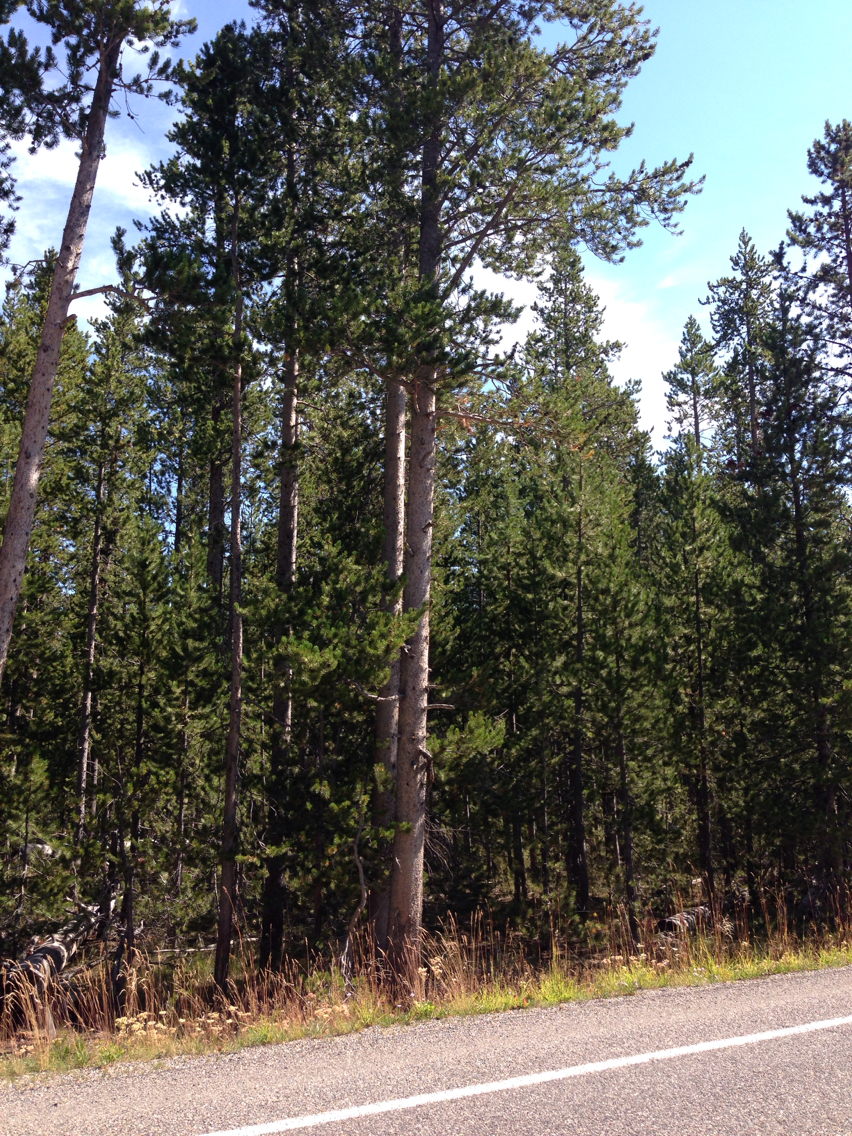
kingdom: Plantae
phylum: Tracheophyta
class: Pinopsida
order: Pinales
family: Pinaceae
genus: Pinus
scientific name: Pinus contorta
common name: Lodgepole pine
